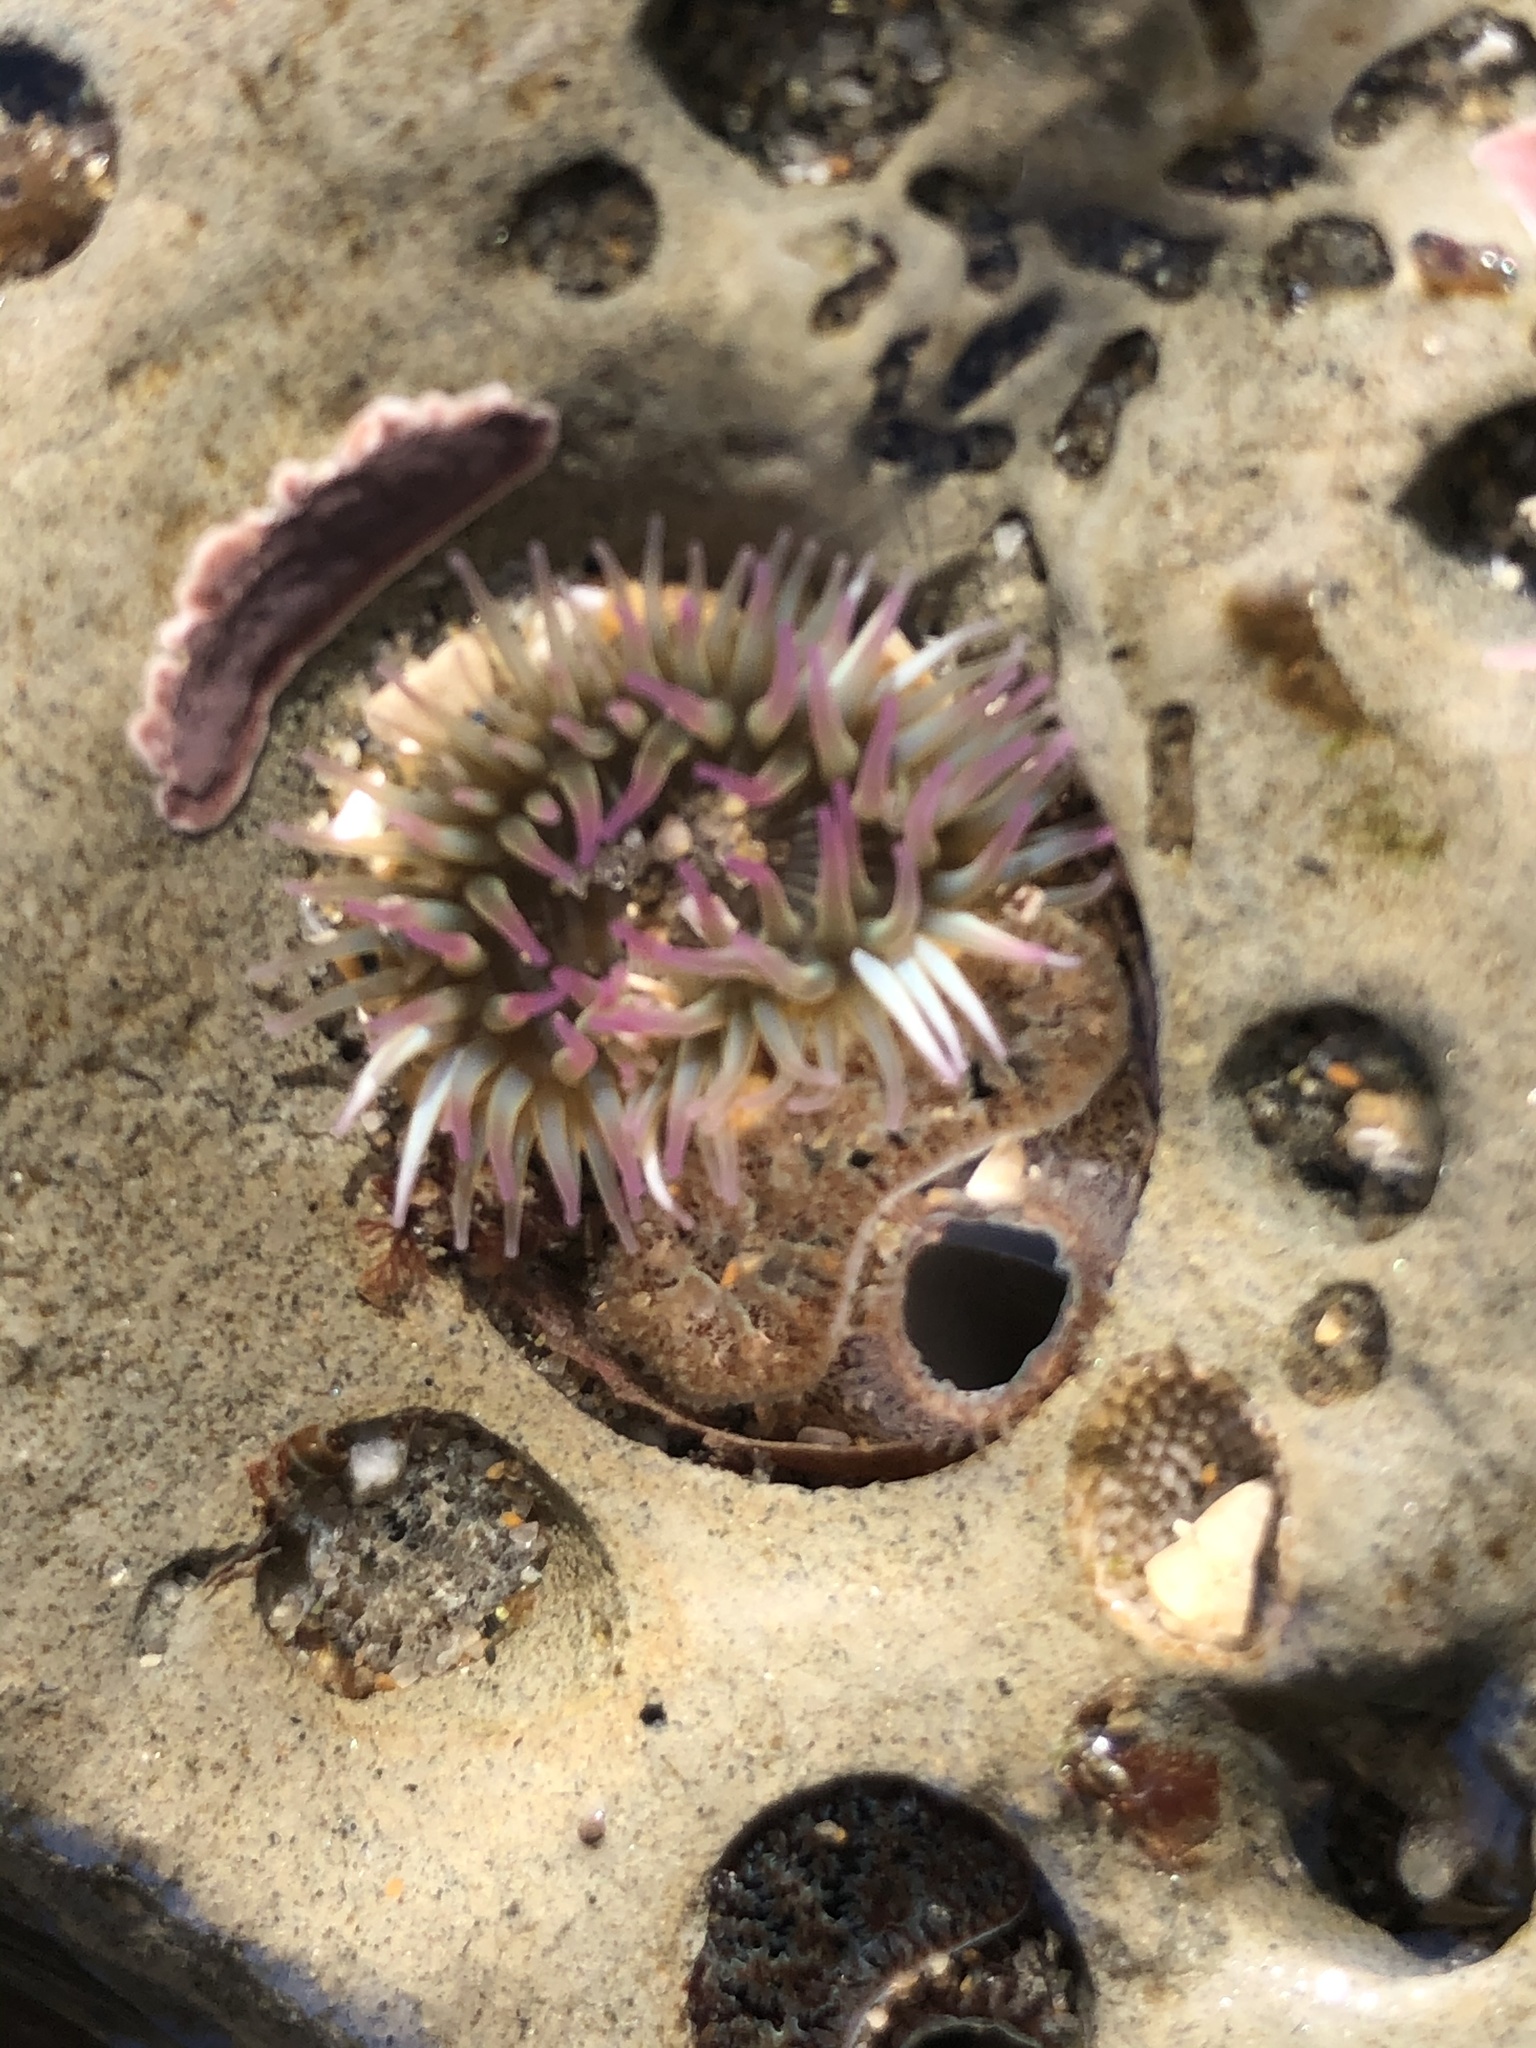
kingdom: Animalia
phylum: Cnidaria
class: Anthozoa
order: Actiniaria
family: Actiniidae
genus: Anthopleura
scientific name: Anthopleura elegantissima
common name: Clonal anemone
